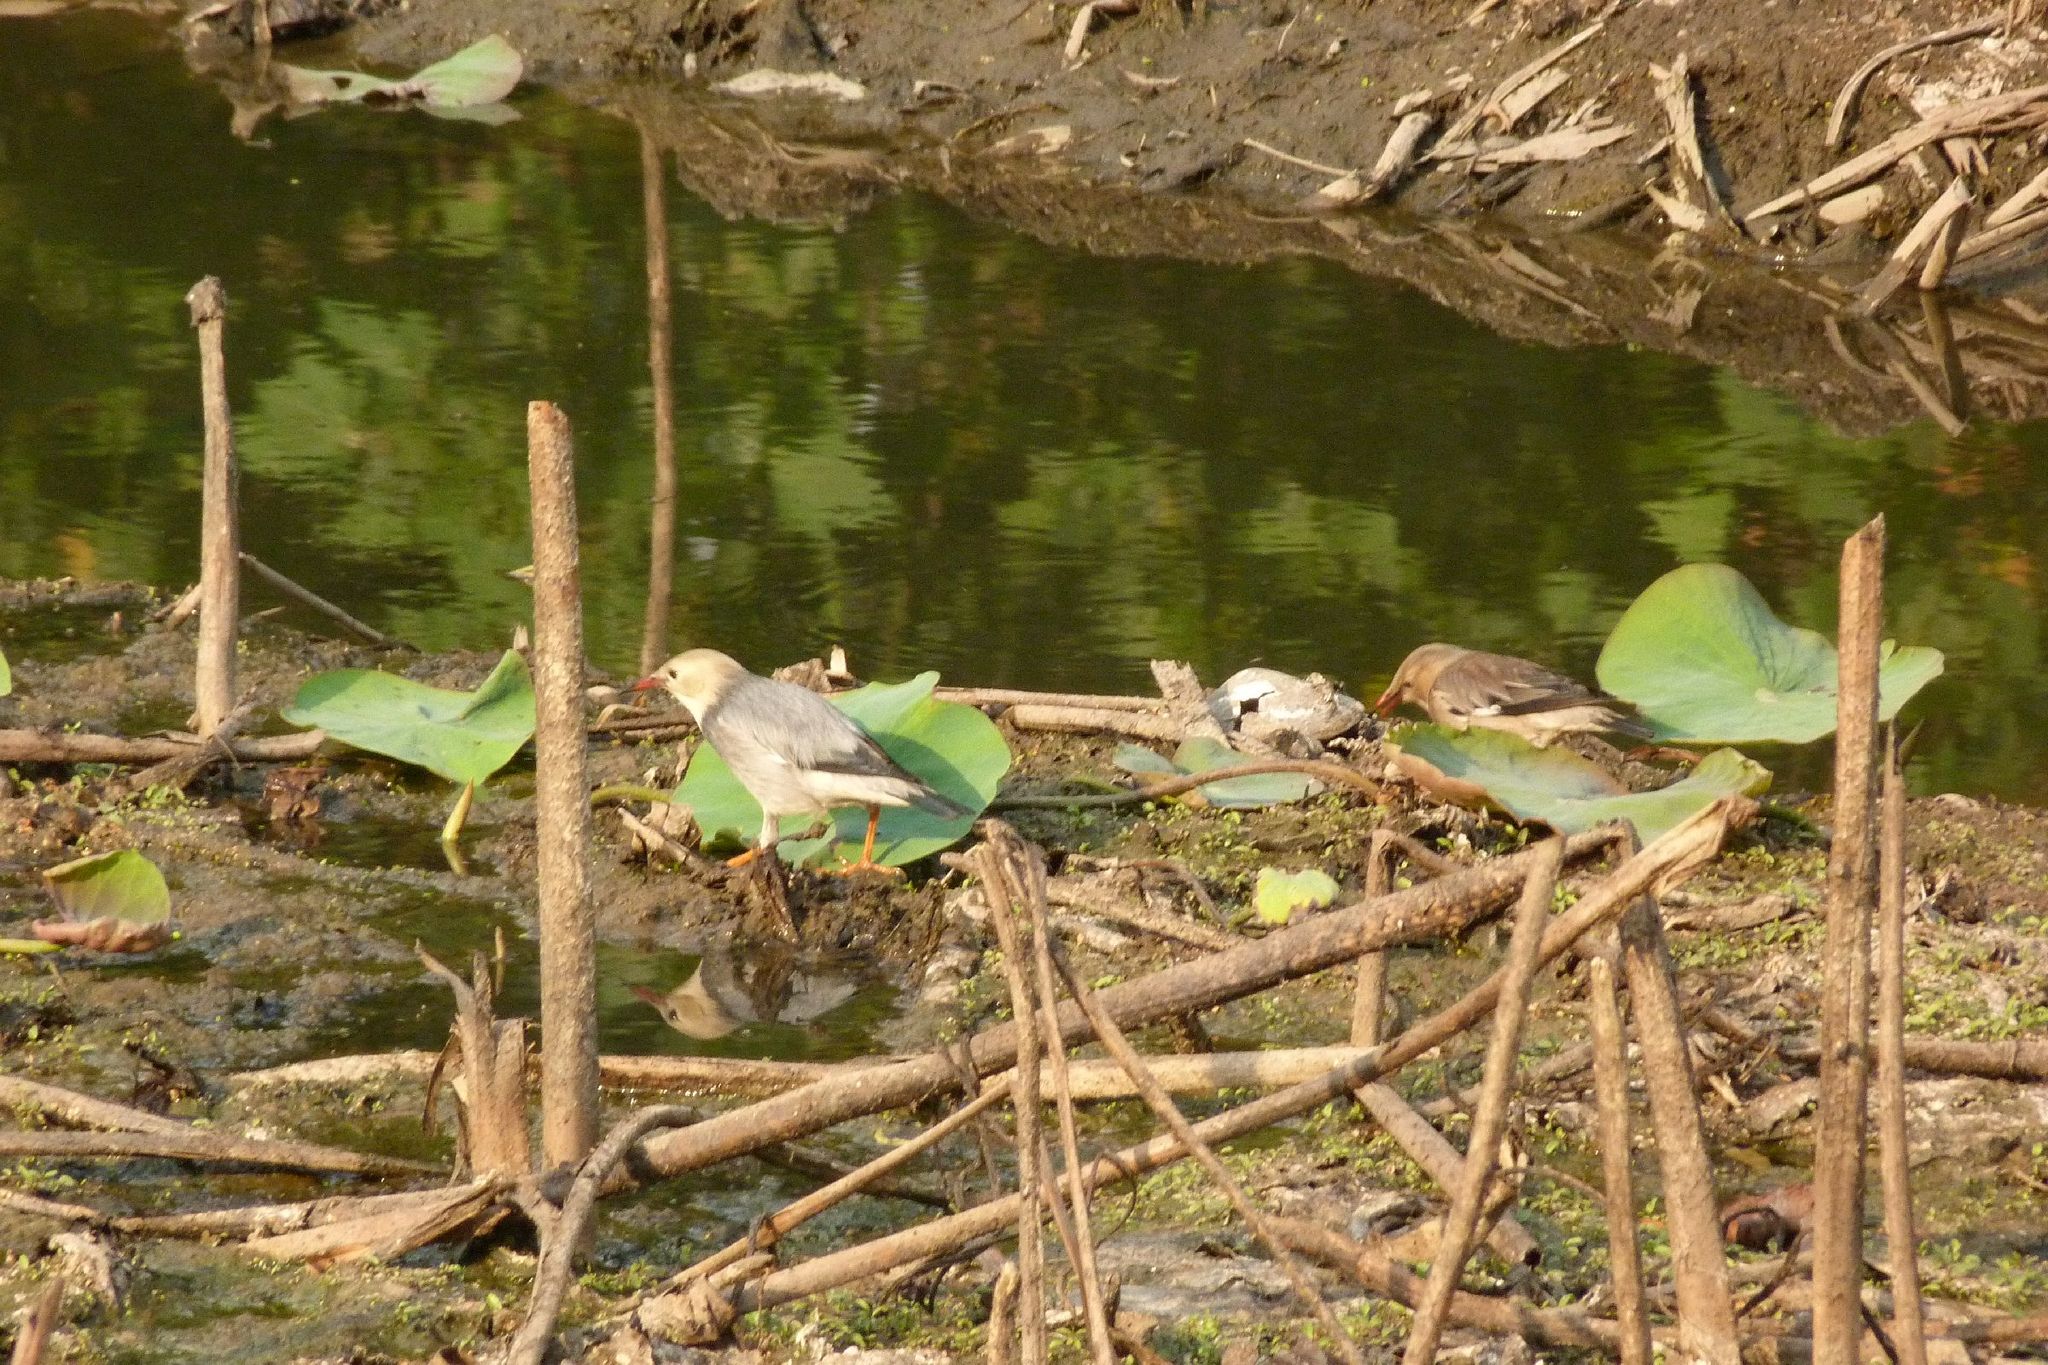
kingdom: Animalia
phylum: Chordata
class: Aves
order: Passeriformes
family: Sturnidae
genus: Spodiopsar
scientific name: Spodiopsar sericeus
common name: Red-billed starling
